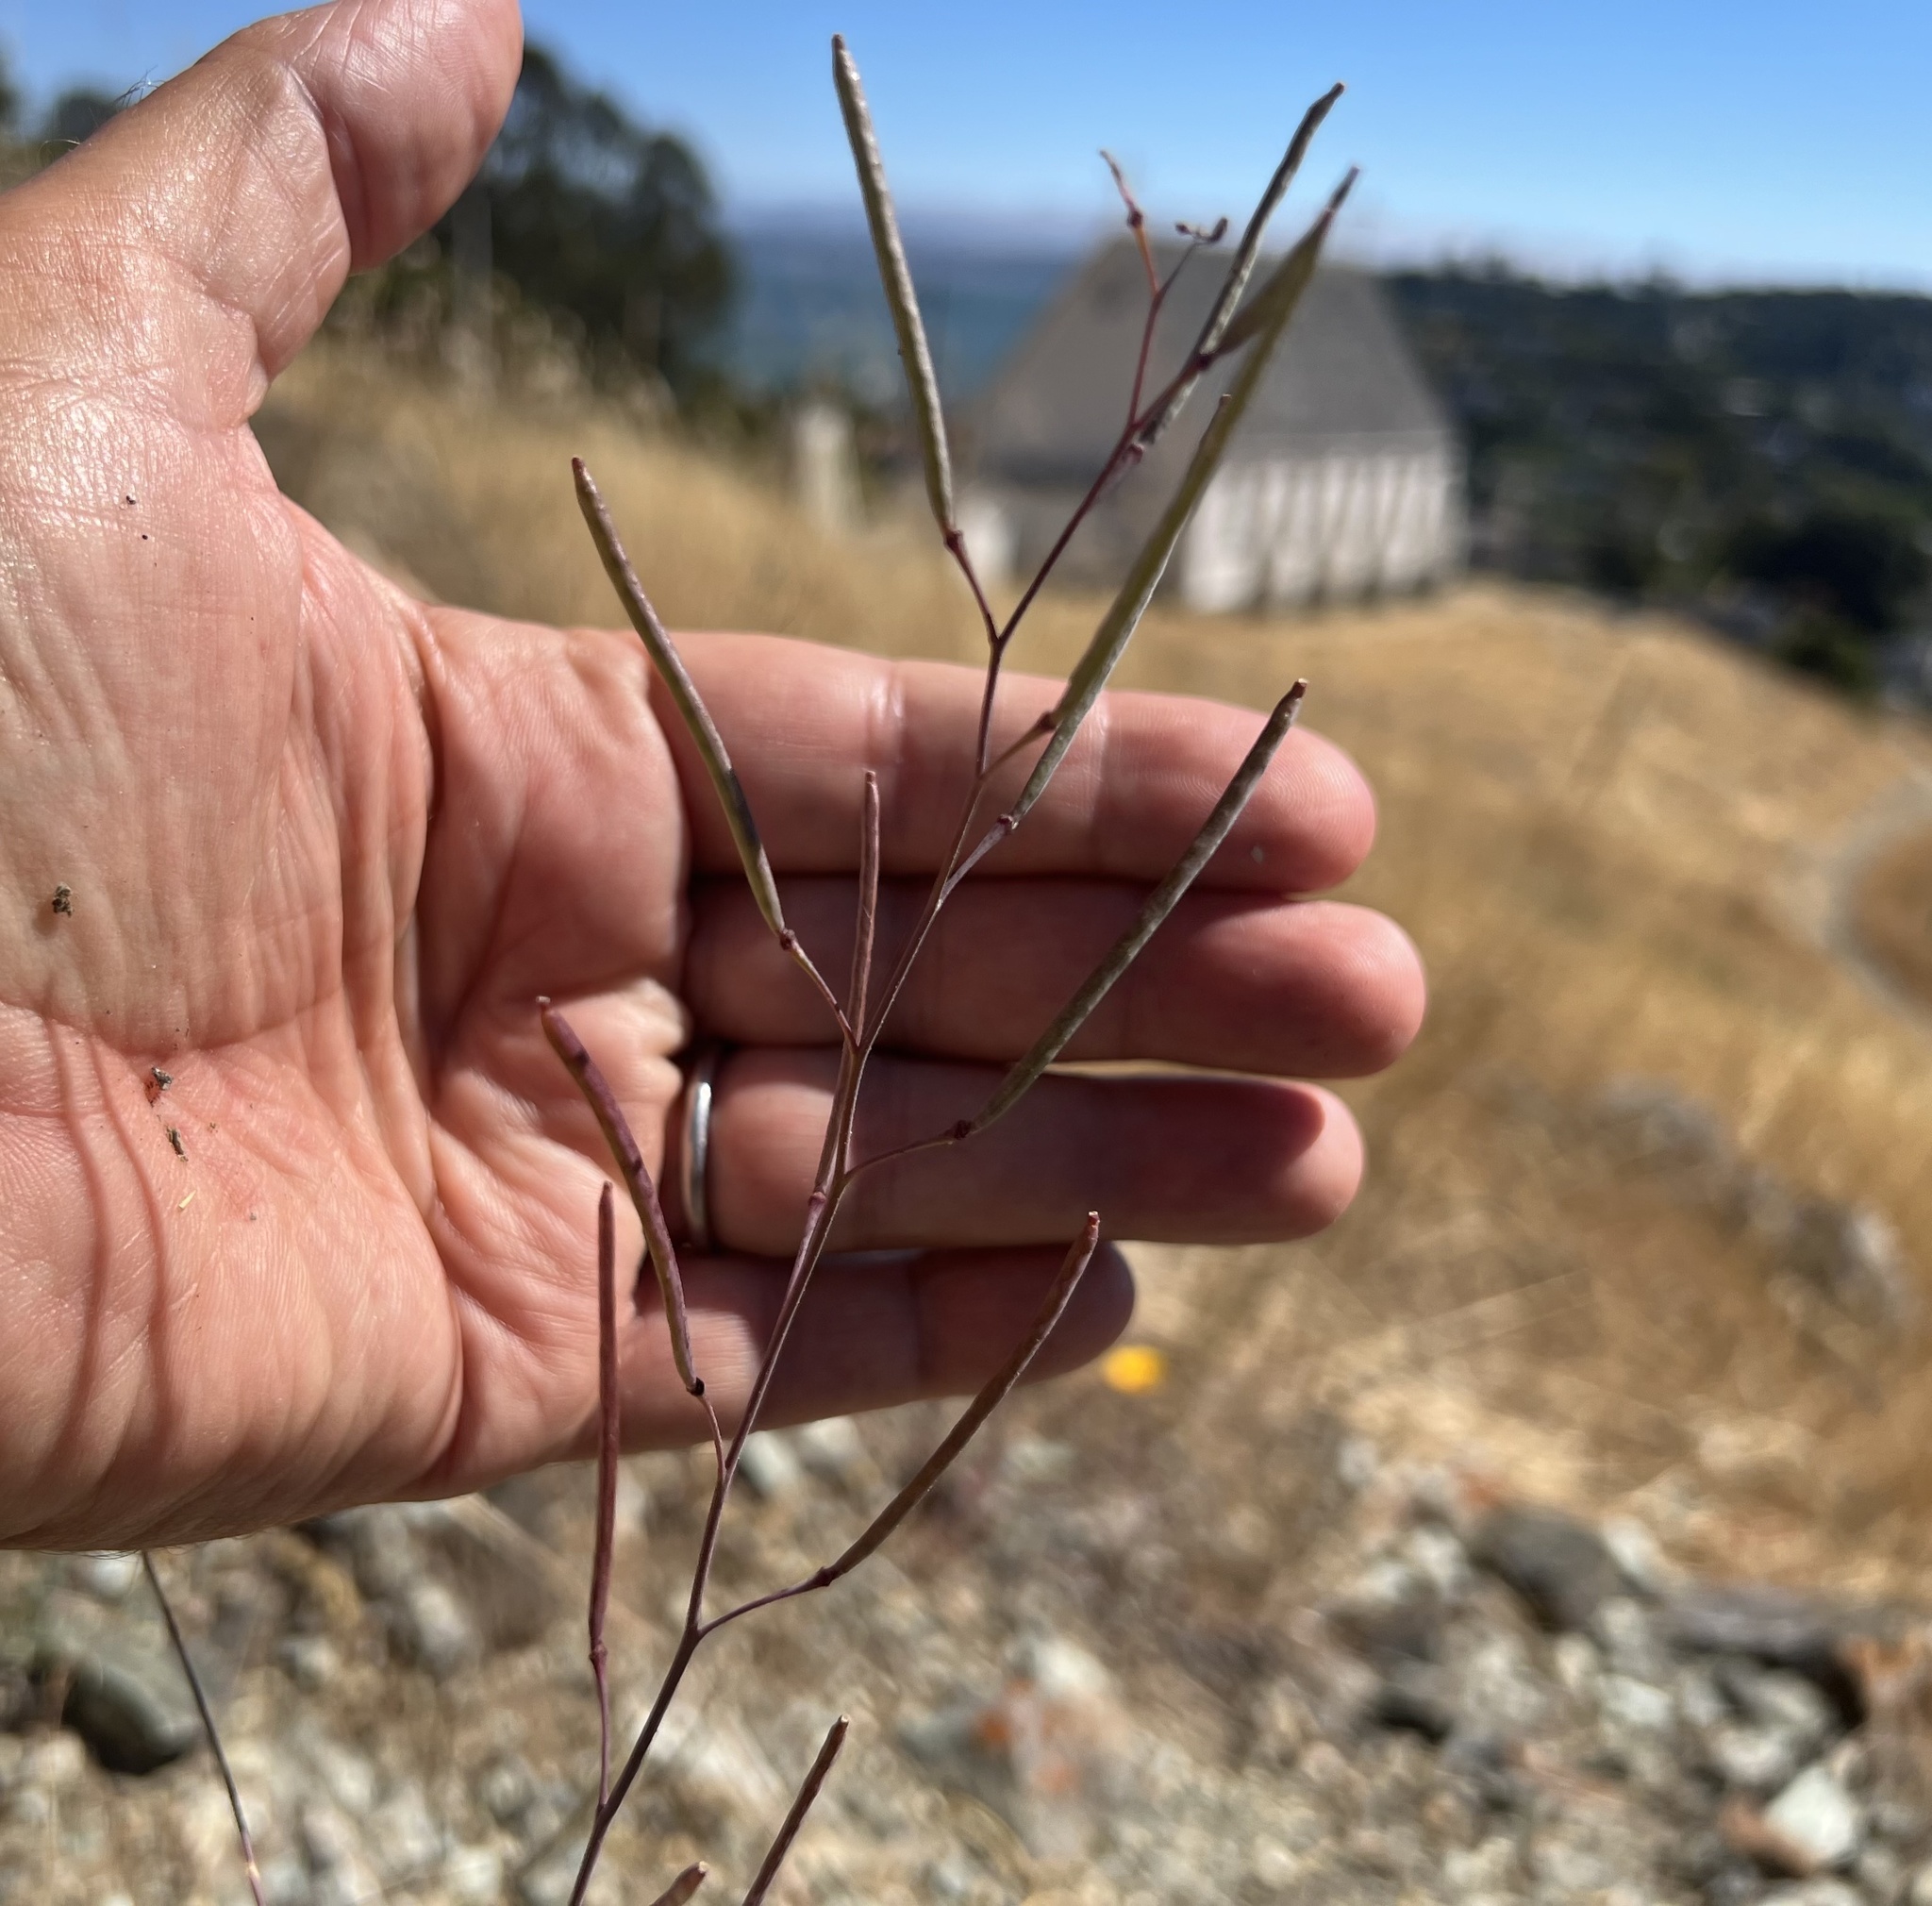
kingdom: Plantae
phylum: Tracheophyta
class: Magnoliopsida
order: Brassicales
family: Brassicaceae
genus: Streptanthus
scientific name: Streptanthus glandulosus
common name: Jewel-flower
